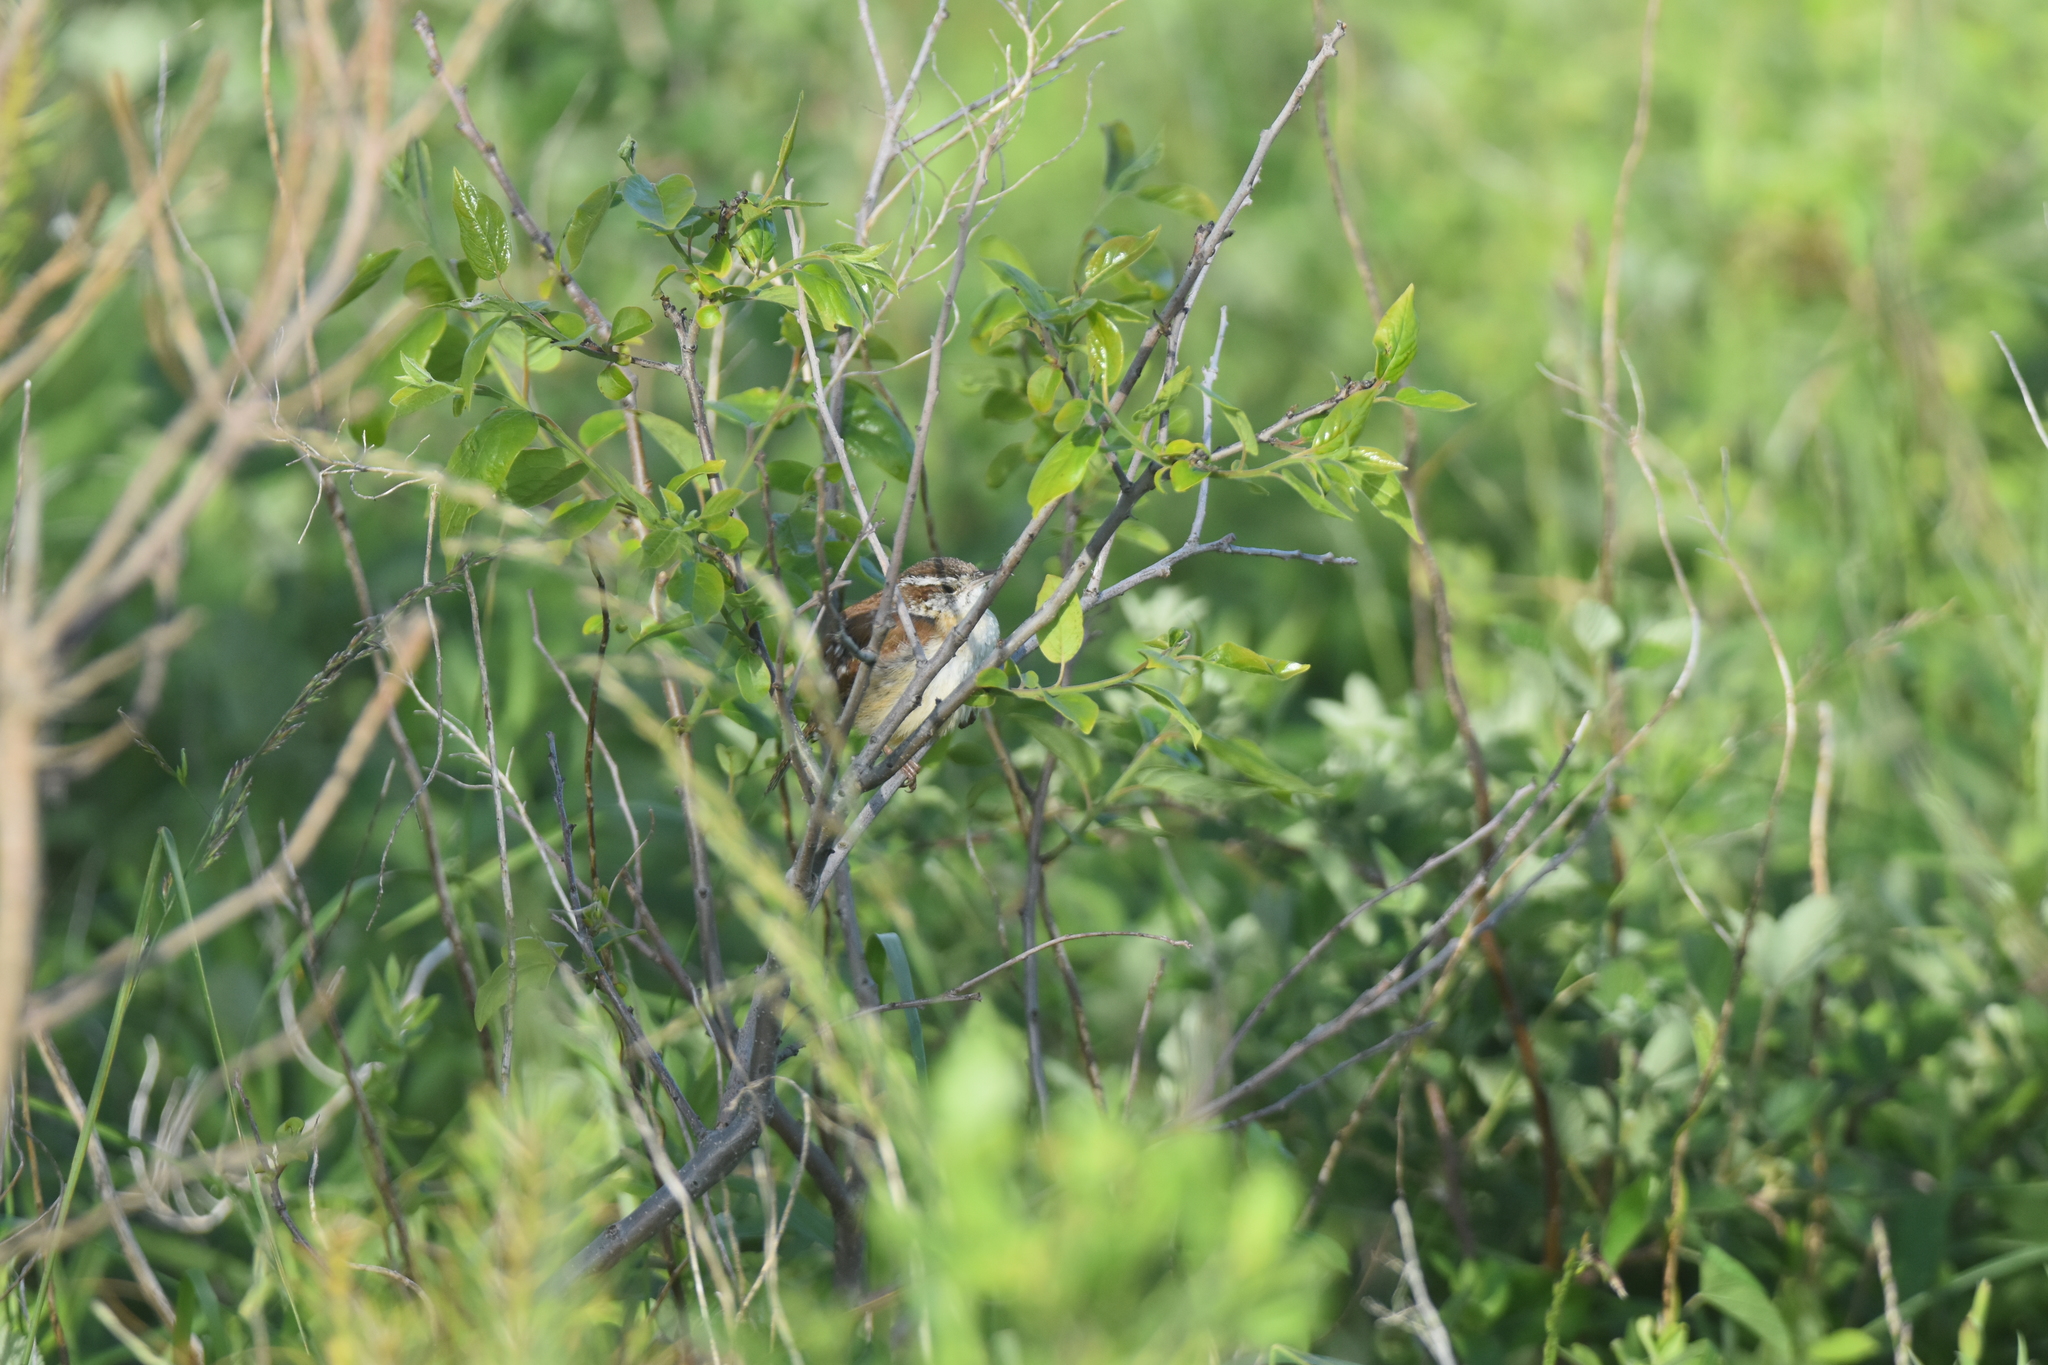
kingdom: Animalia
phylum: Chordata
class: Aves
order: Passeriformes
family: Troglodytidae
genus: Thryothorus
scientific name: Thryothorus ludovicianus
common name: Carolina wren
